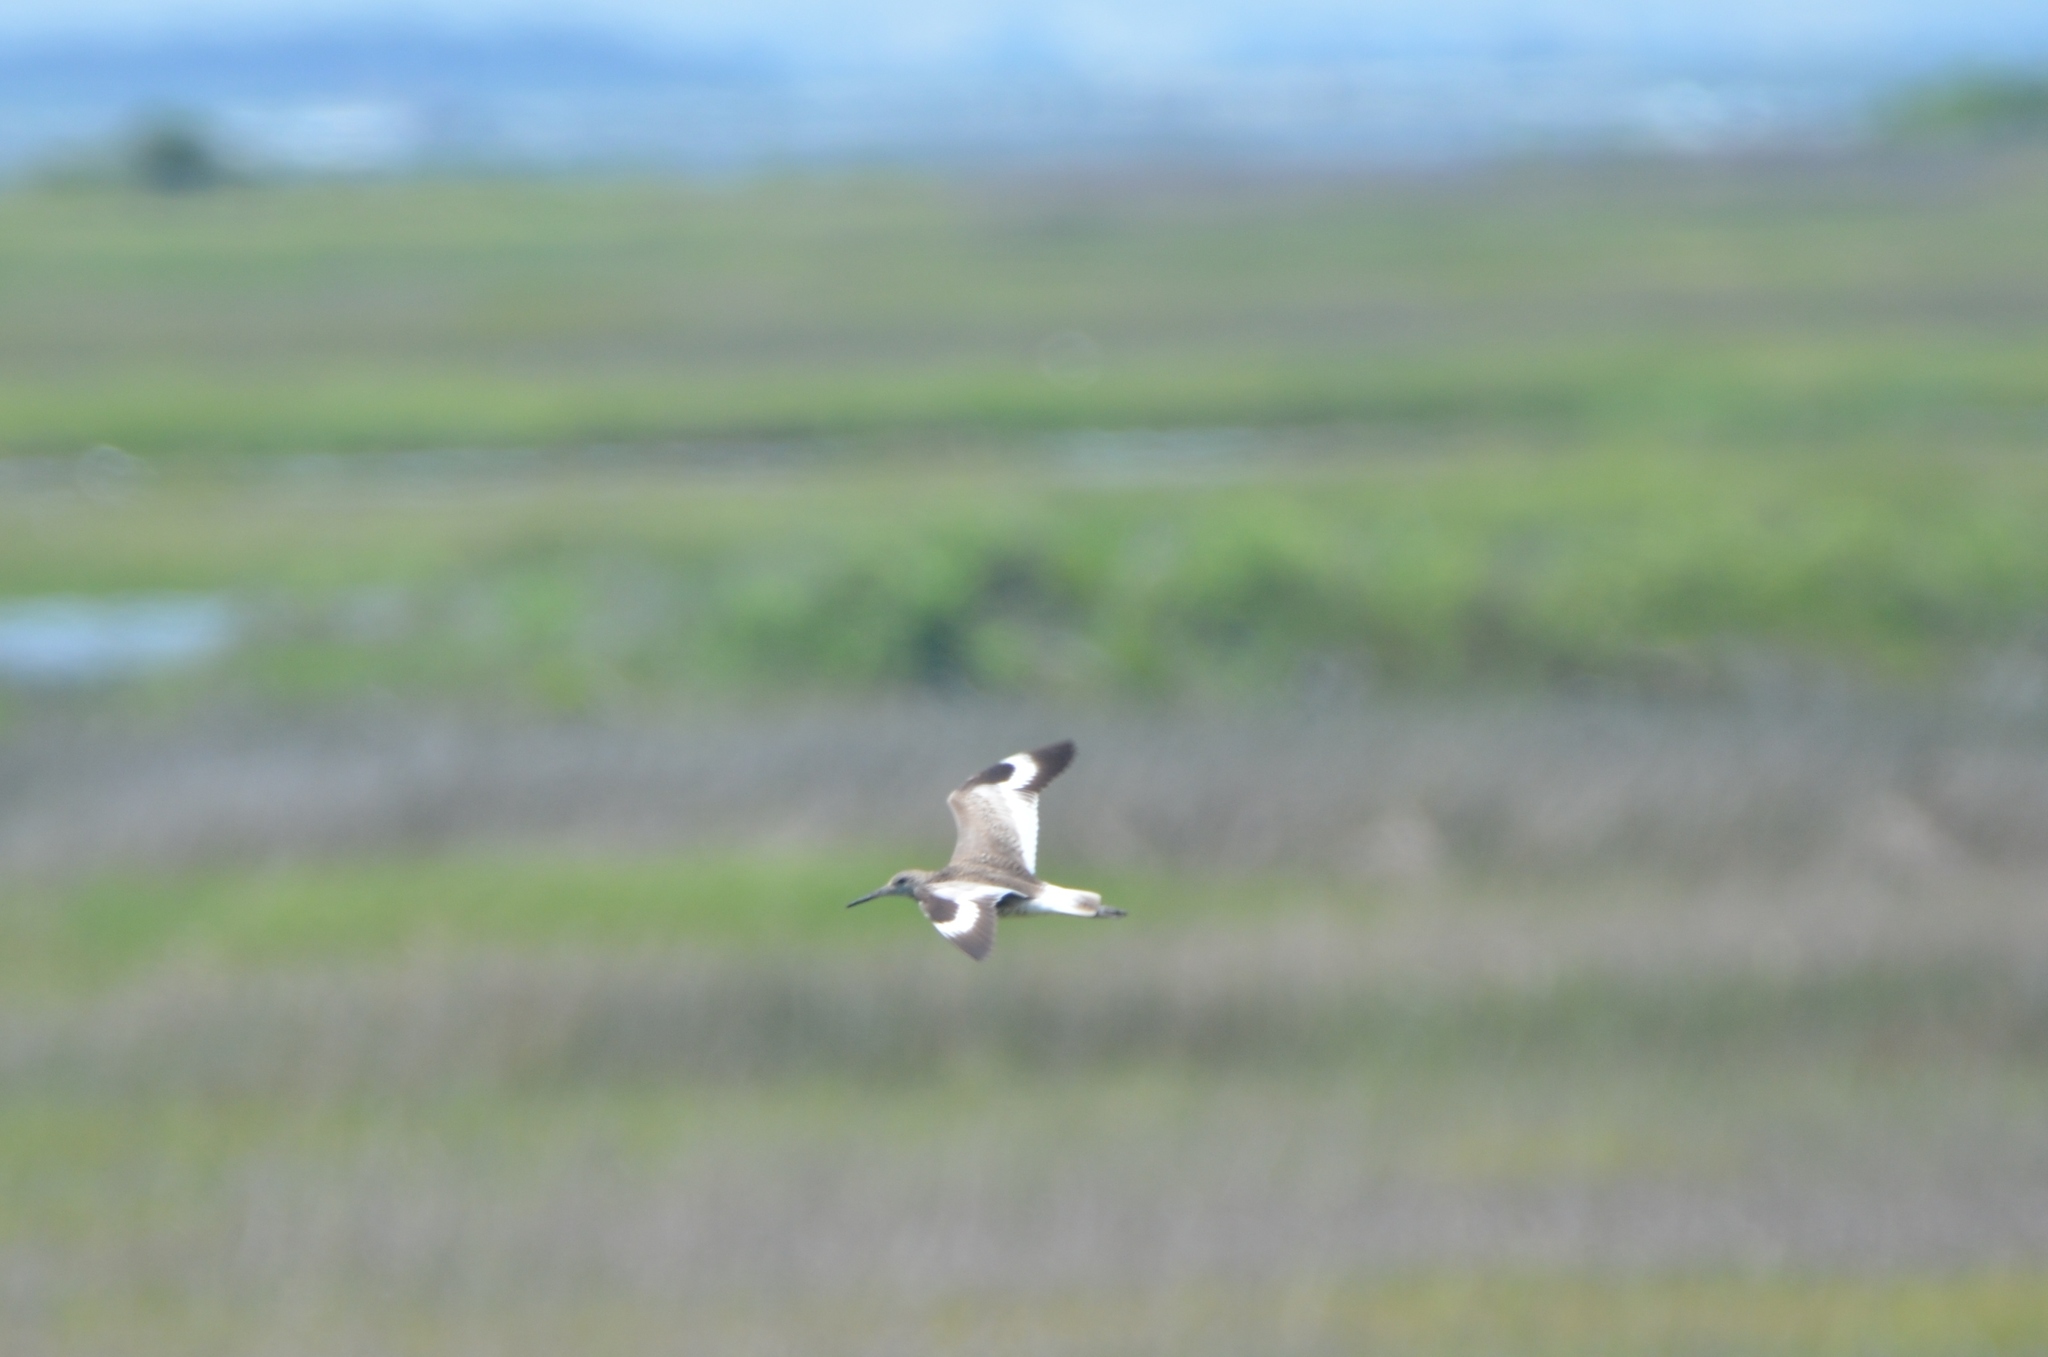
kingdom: Animalia
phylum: Chordata
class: Aves
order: Charadriiformes
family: Scolopacidae
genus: Tringa
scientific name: Tringa semipalmata
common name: Willet
